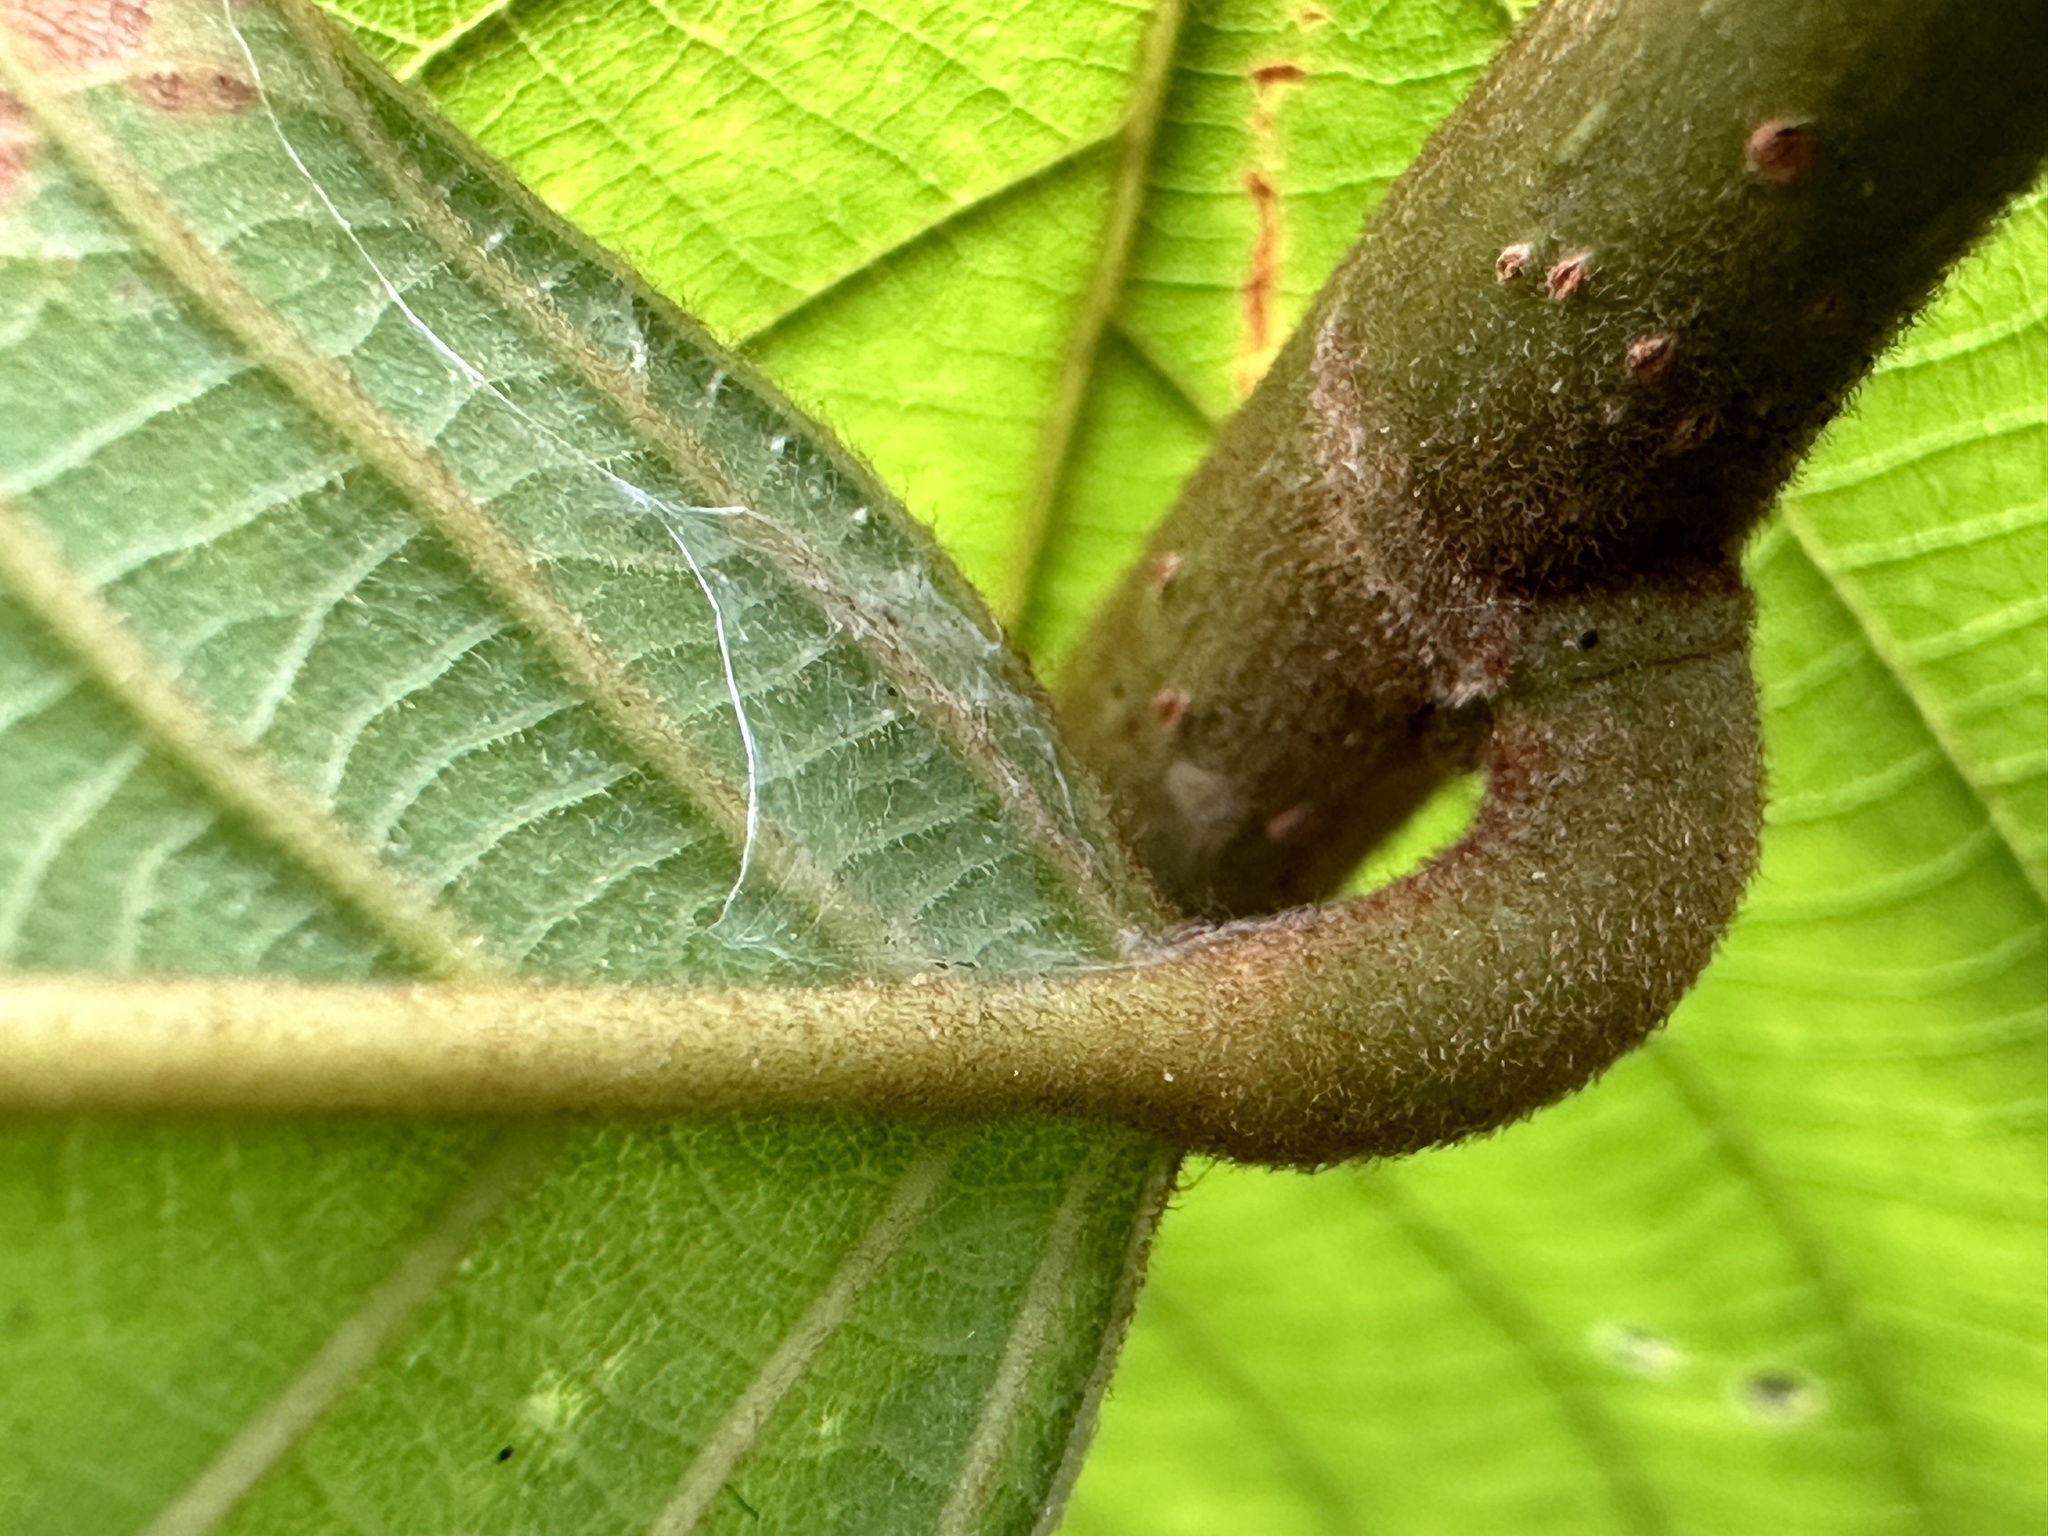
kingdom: Plantae
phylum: Tracheophyta
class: Magnoliopsida
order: Malpighiales
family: Phyllanthaceae
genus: Bridelia
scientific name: Bridelia stipularis
